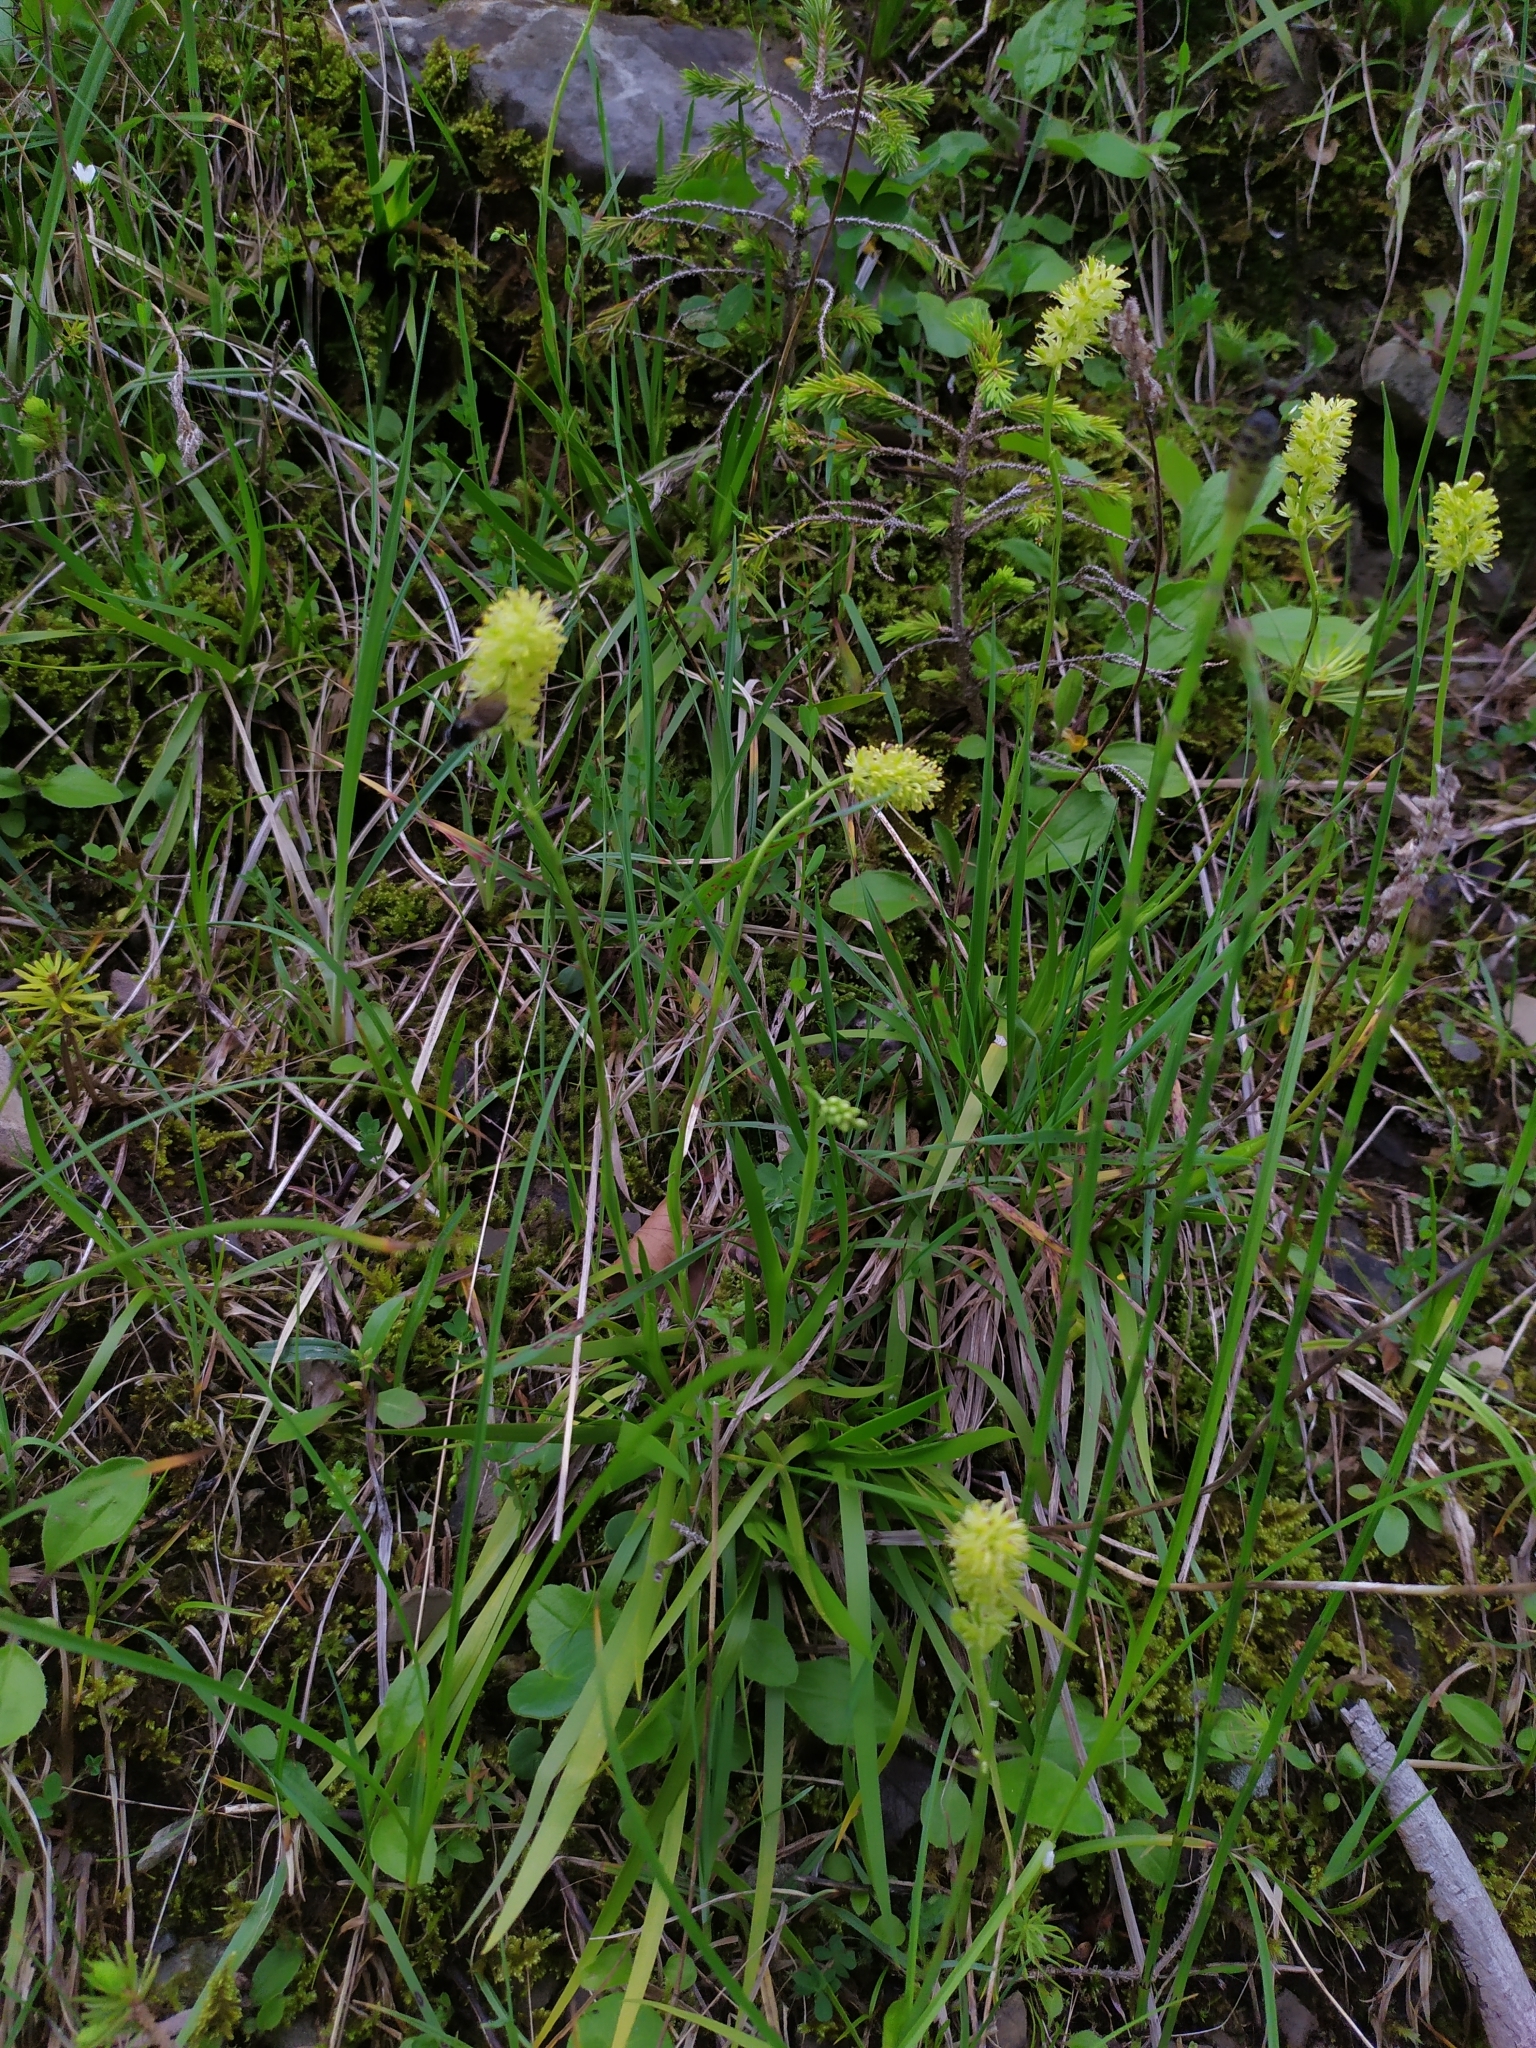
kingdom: Plantae
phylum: Tracheophyta
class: Liliopsida
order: Alismatales
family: Tofieldiaceae
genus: Tofieldia
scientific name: Tofieldia calyculata
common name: German-asphodel
